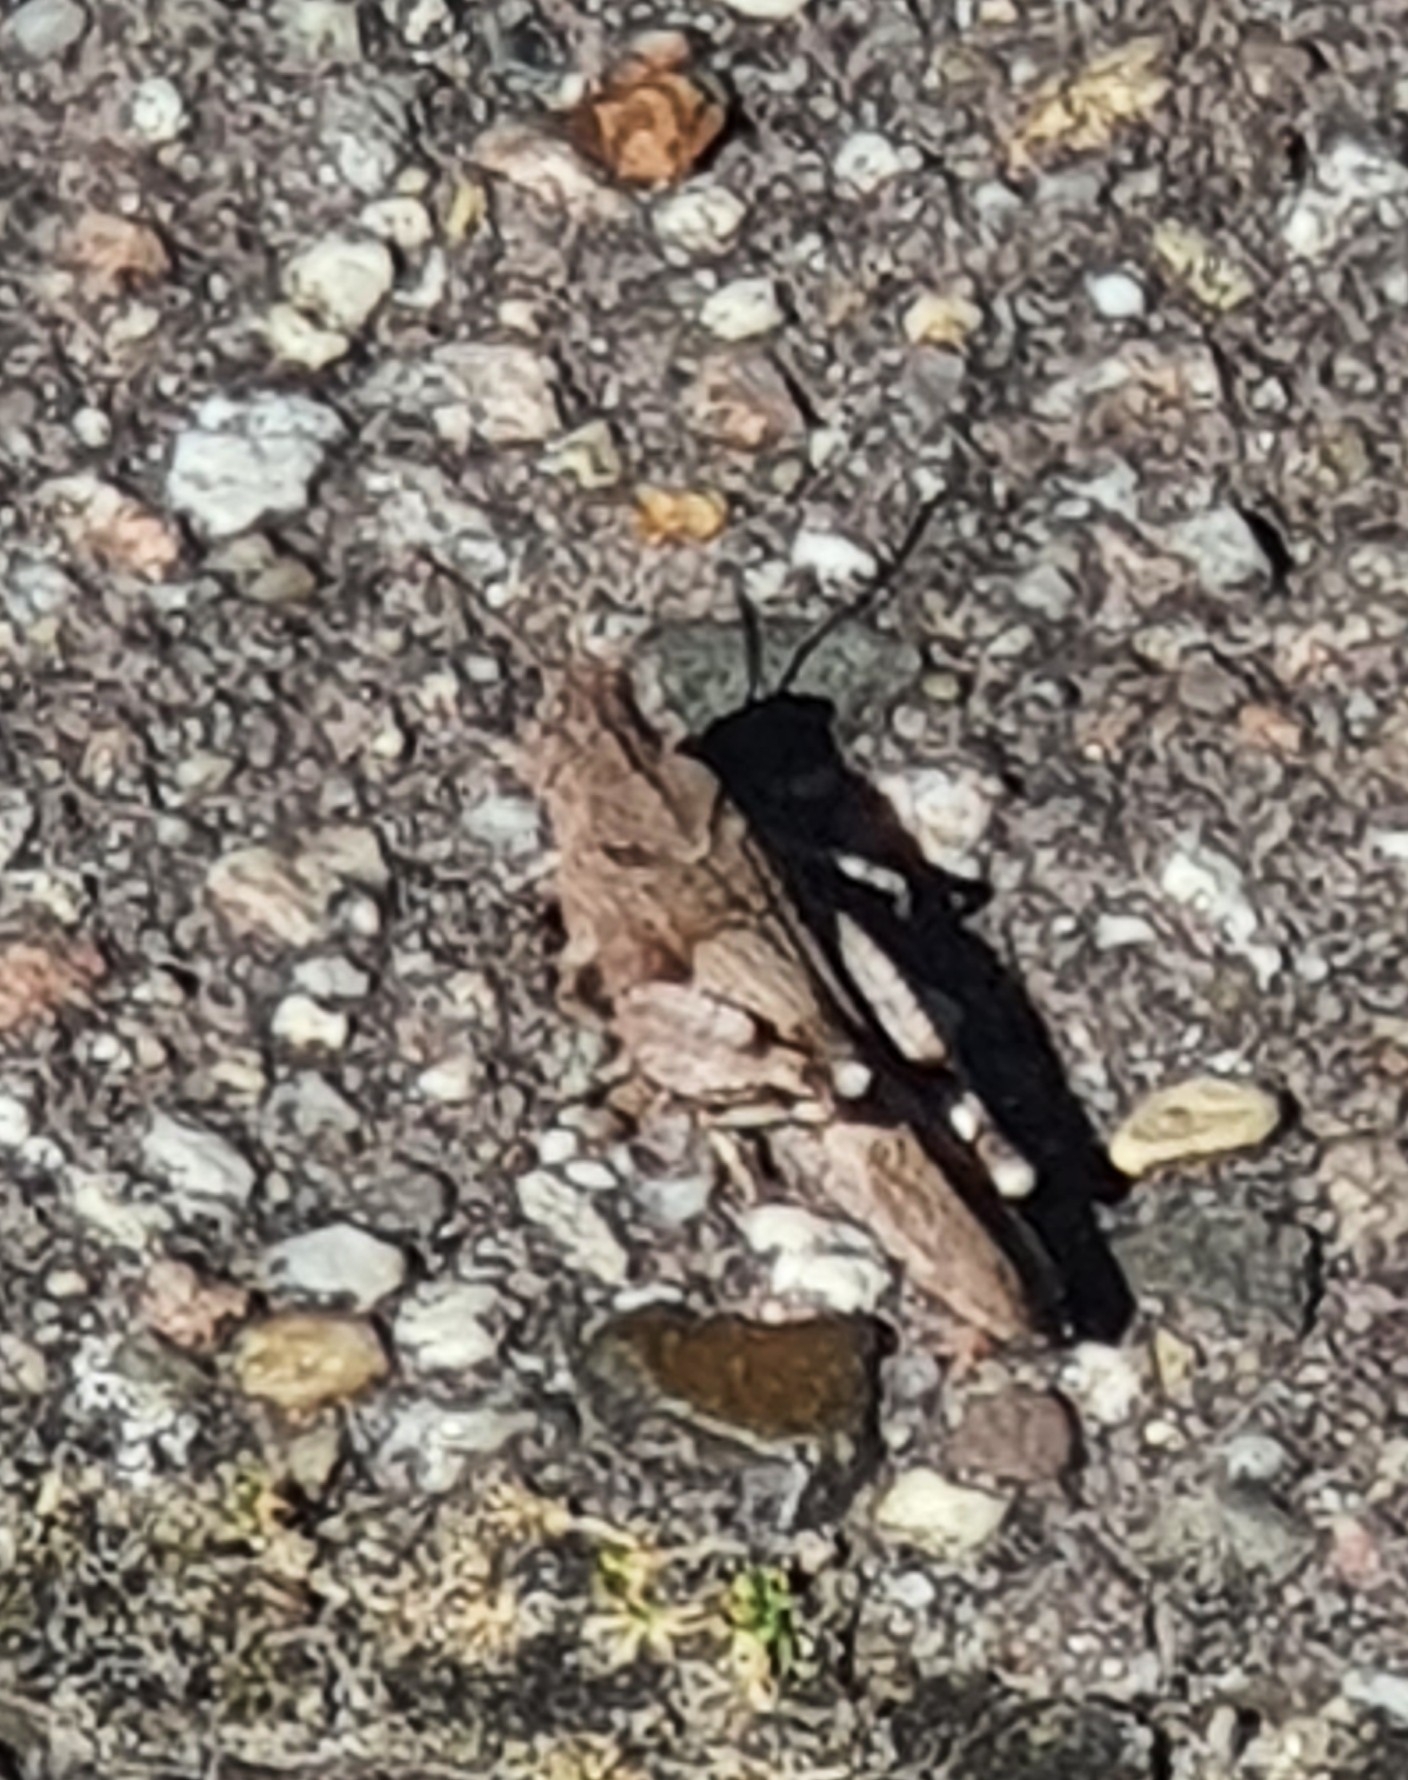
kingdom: Animalia
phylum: Arthropoda
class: Insecta
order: Orthoptera
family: Acrididae
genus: Oedipoda
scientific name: Oedipoda caerulescens
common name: Blue-winged grasshopper
